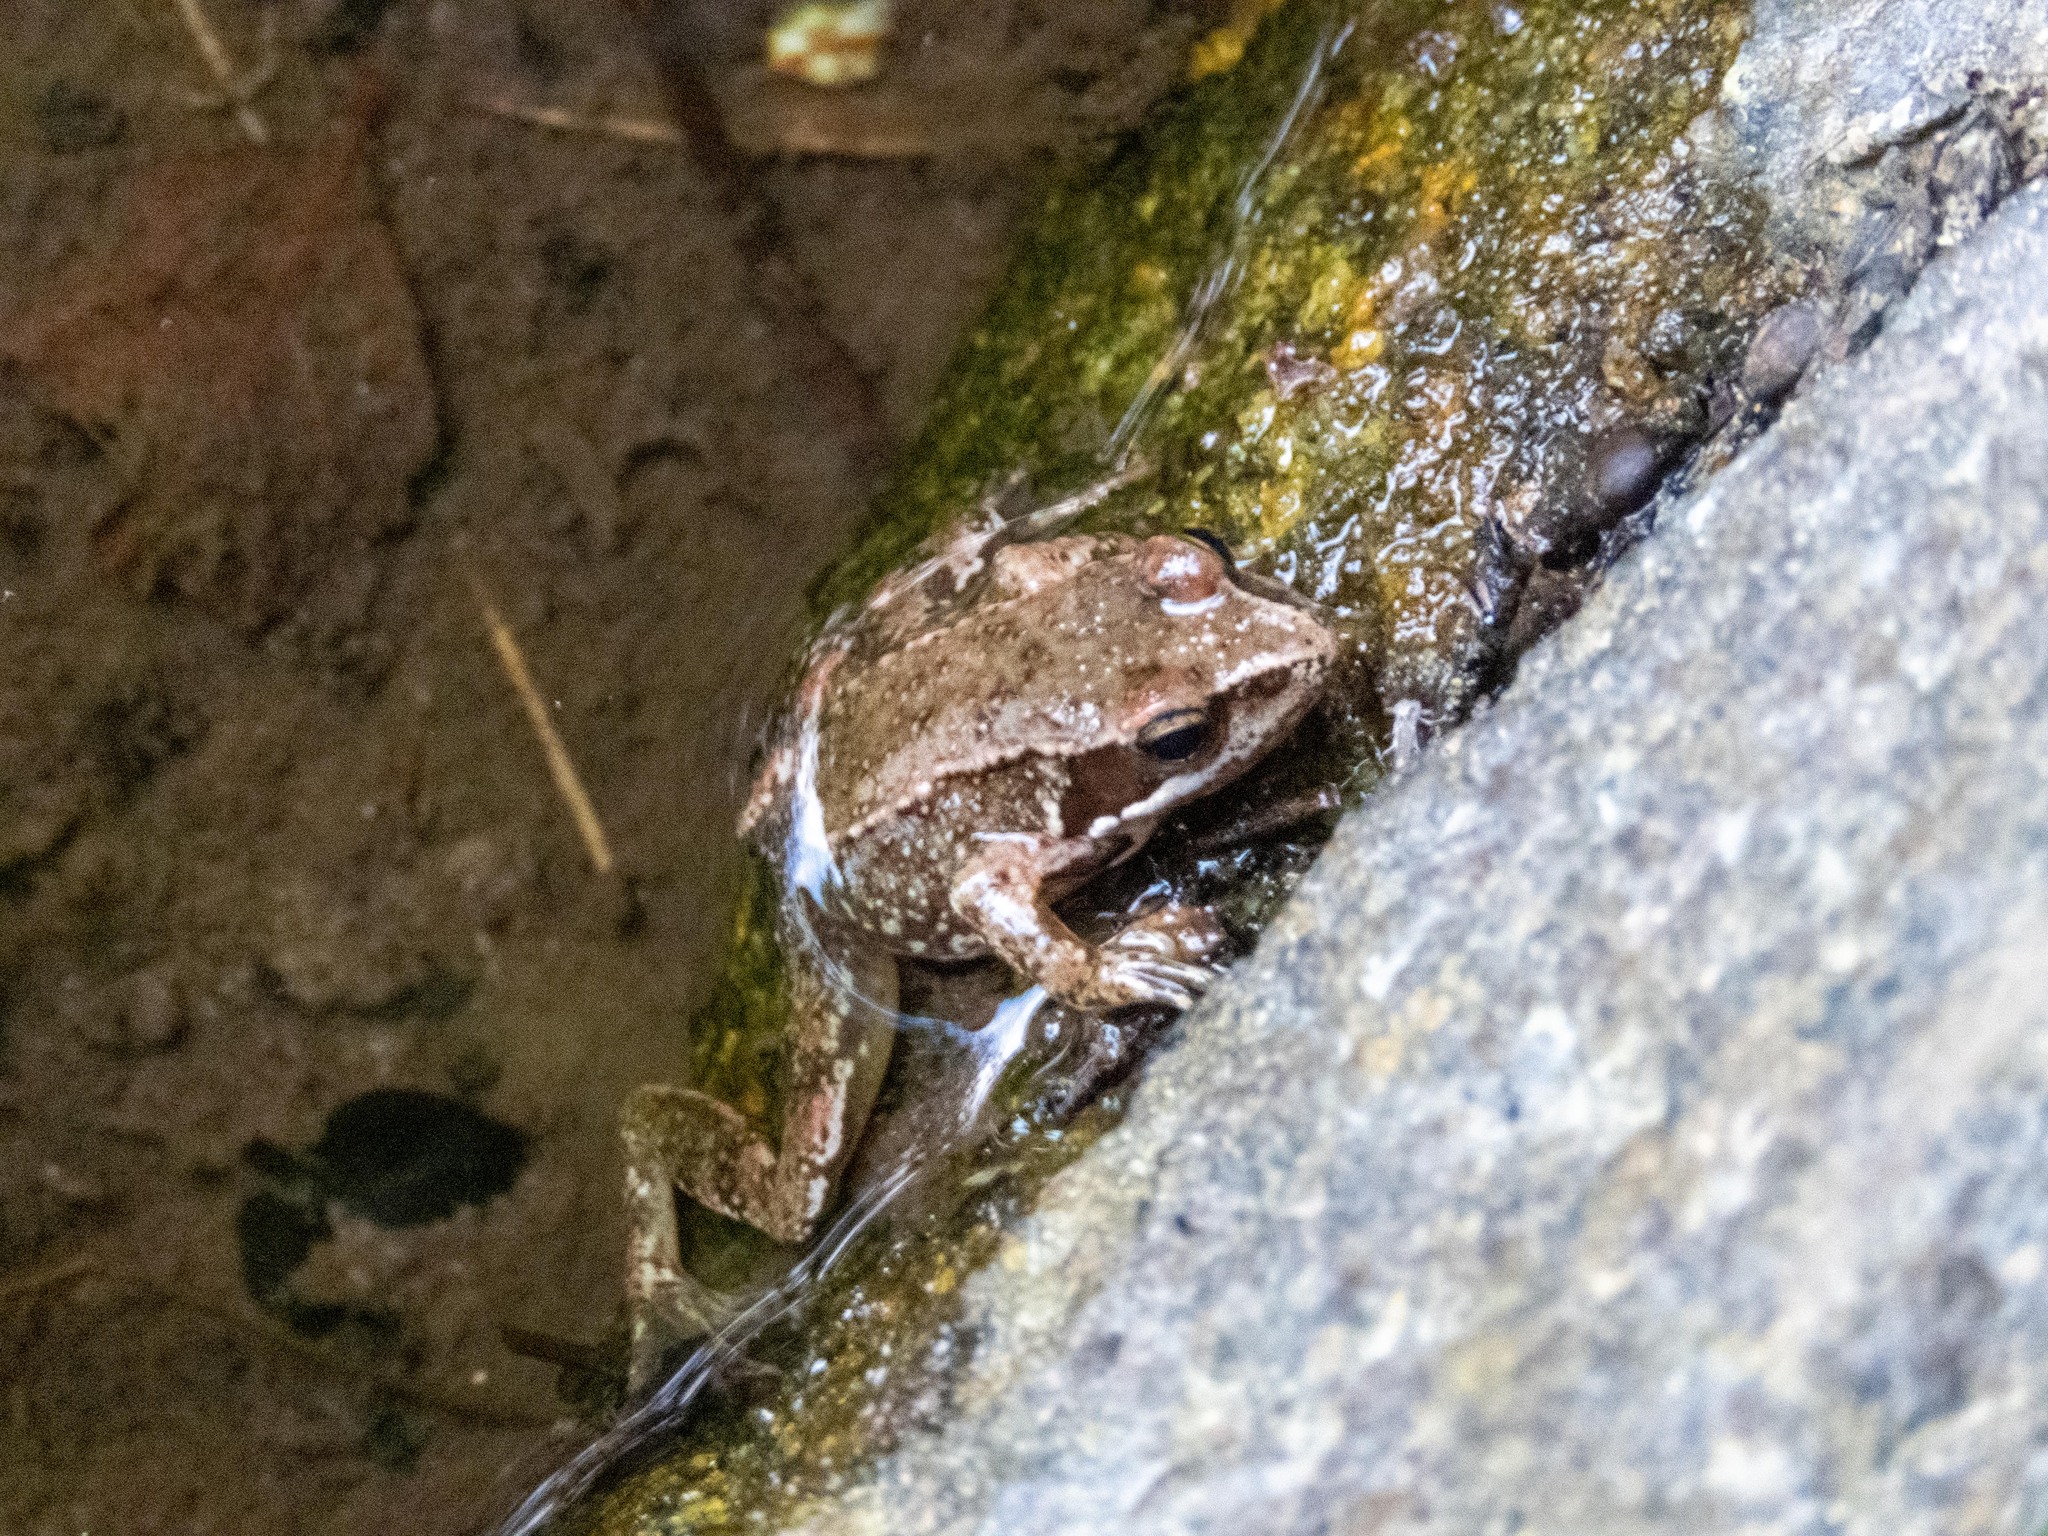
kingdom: Animalia
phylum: Chordata
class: Amphibia
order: Anura
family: Ranidae
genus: Rana
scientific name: Rana iberica
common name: Iberian frog
